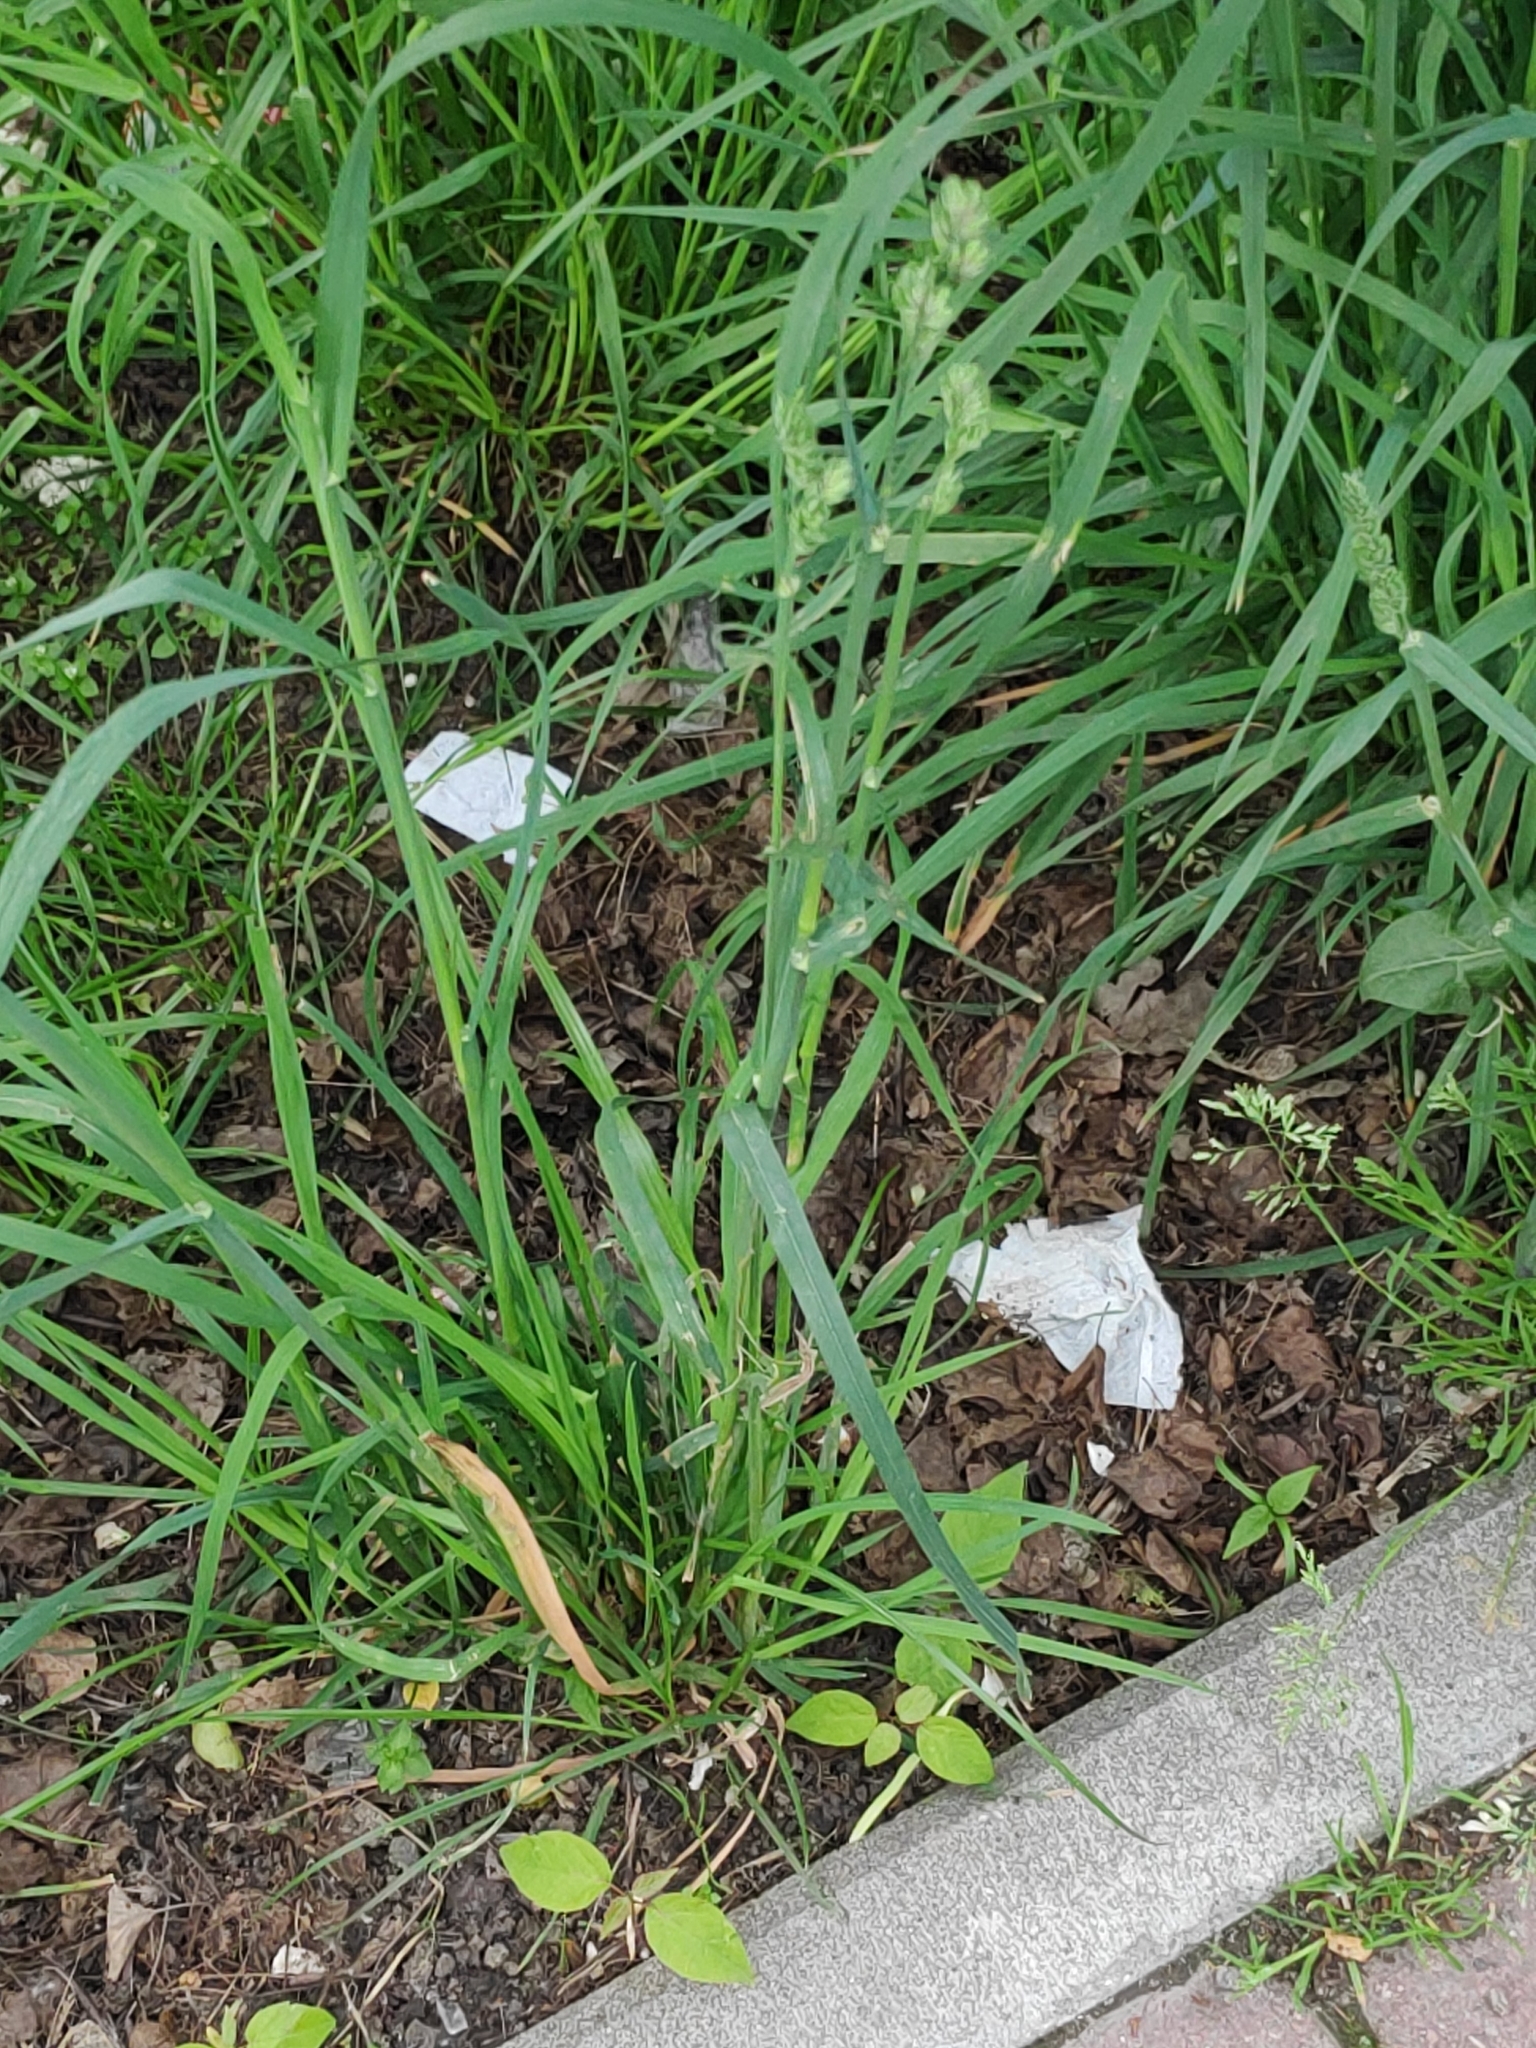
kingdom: Plantae
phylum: Tracheophyta
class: Liliopsida
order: Poales
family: Poaceae
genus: Dactylis
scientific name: Dactylis glomerata
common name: Orchardgrass
